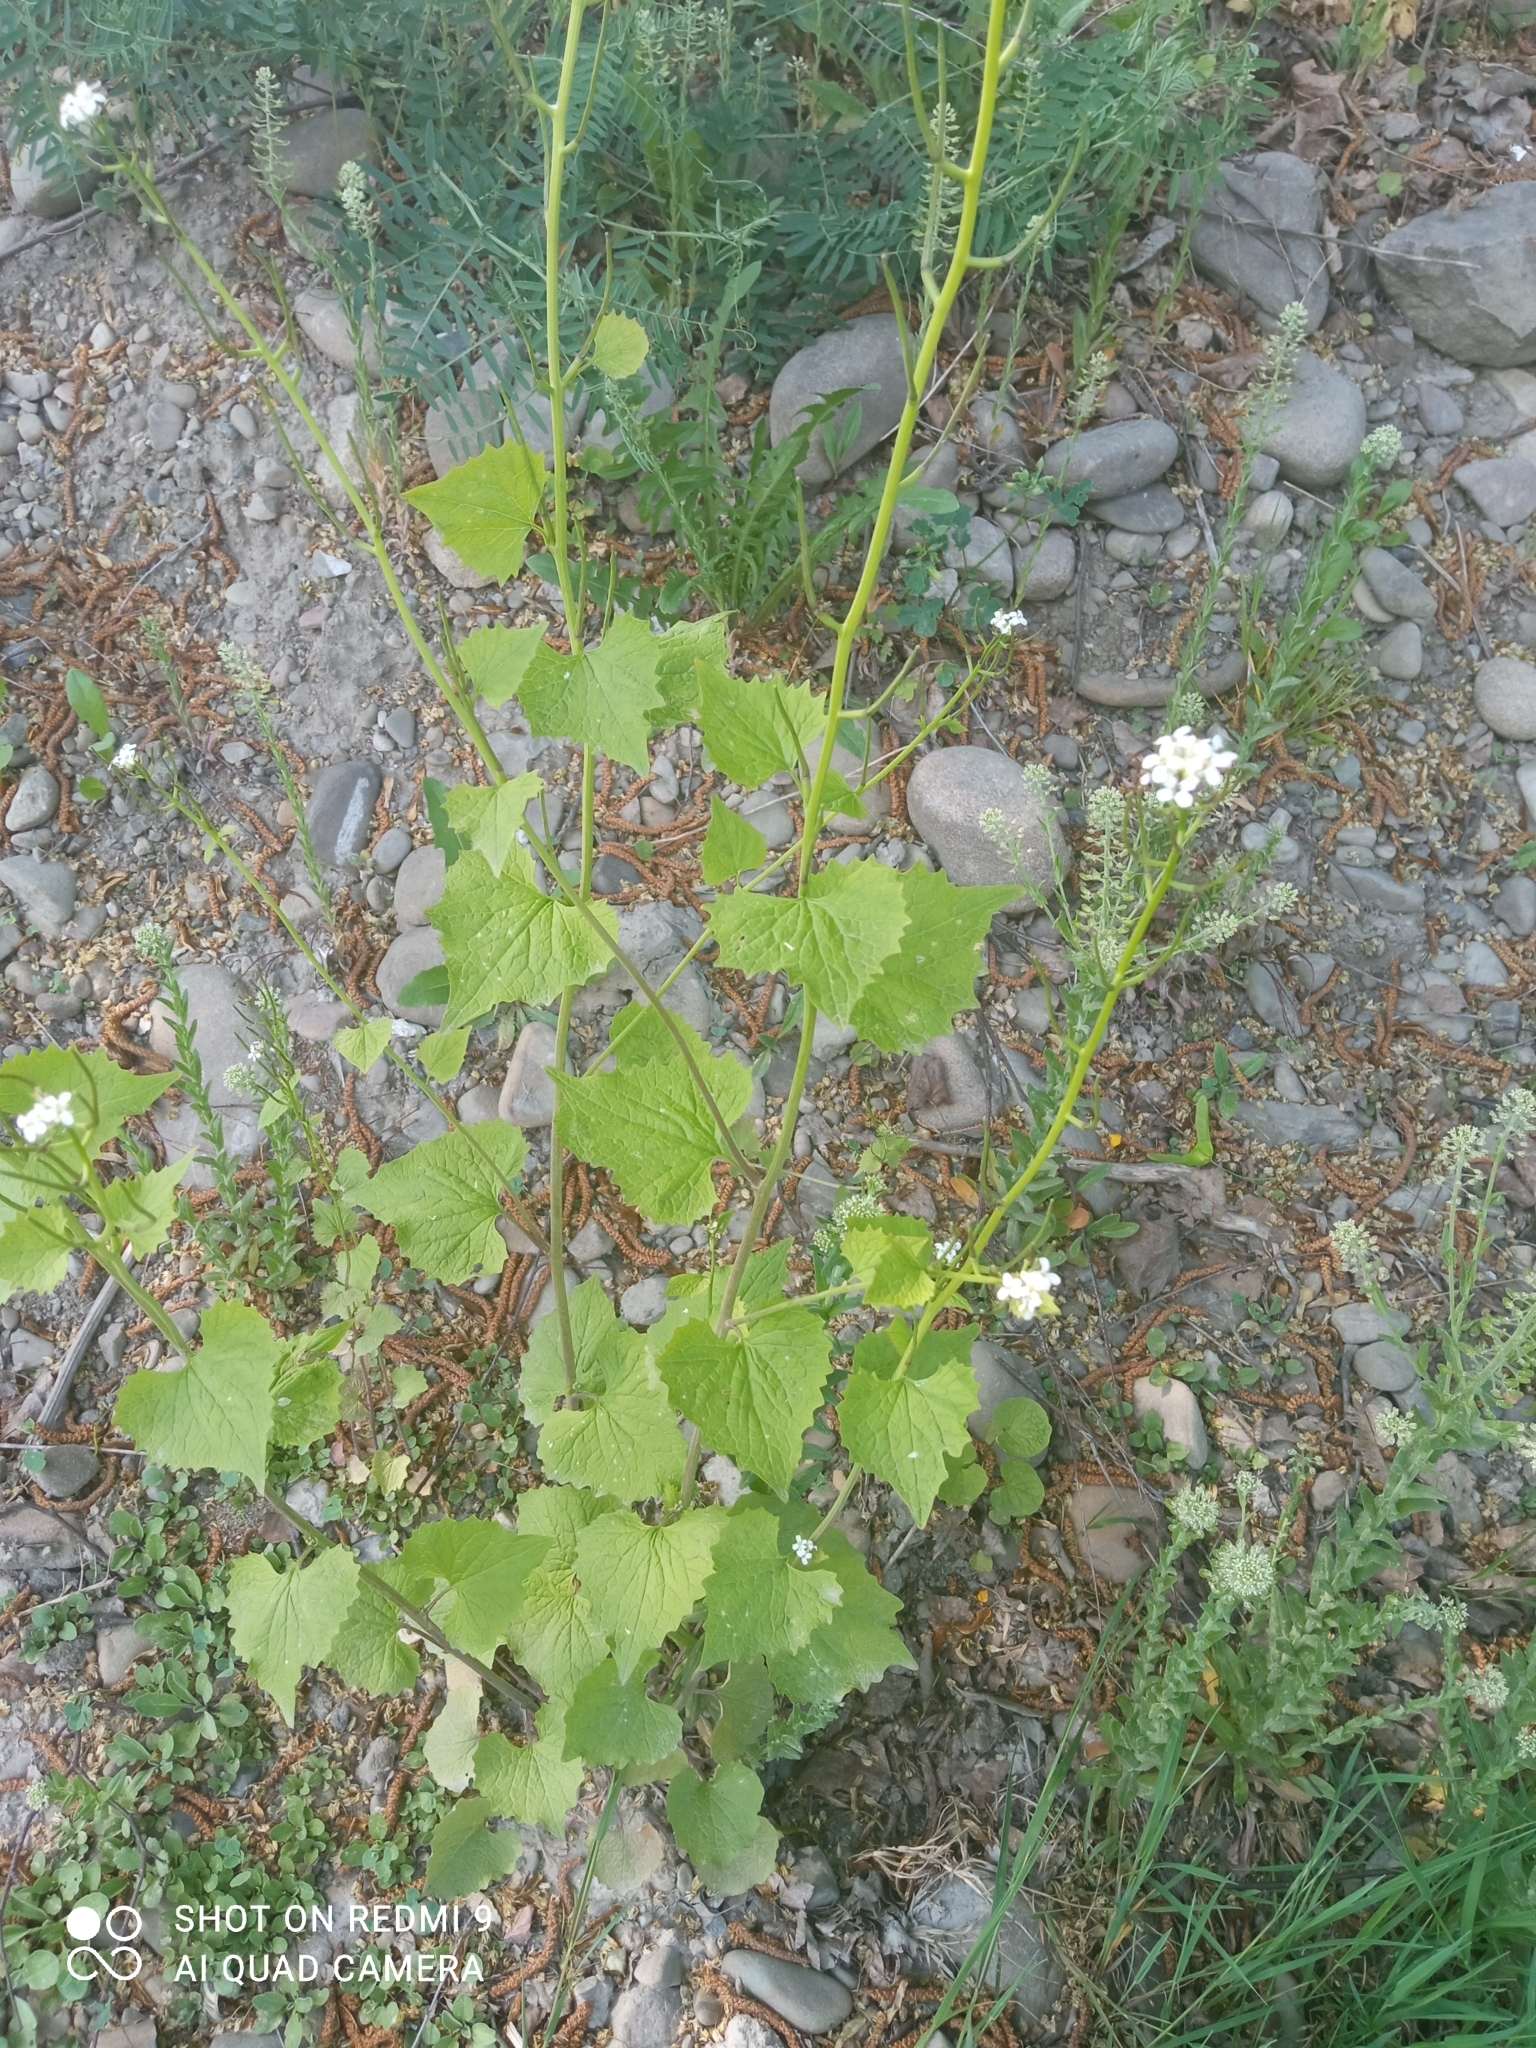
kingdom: Plantae
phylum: Tracheophyta
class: Magnoliopsida
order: Brassicales
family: Brassicaceae
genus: Alliaria
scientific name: Alliaria petiolata
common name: Garlic mustard
